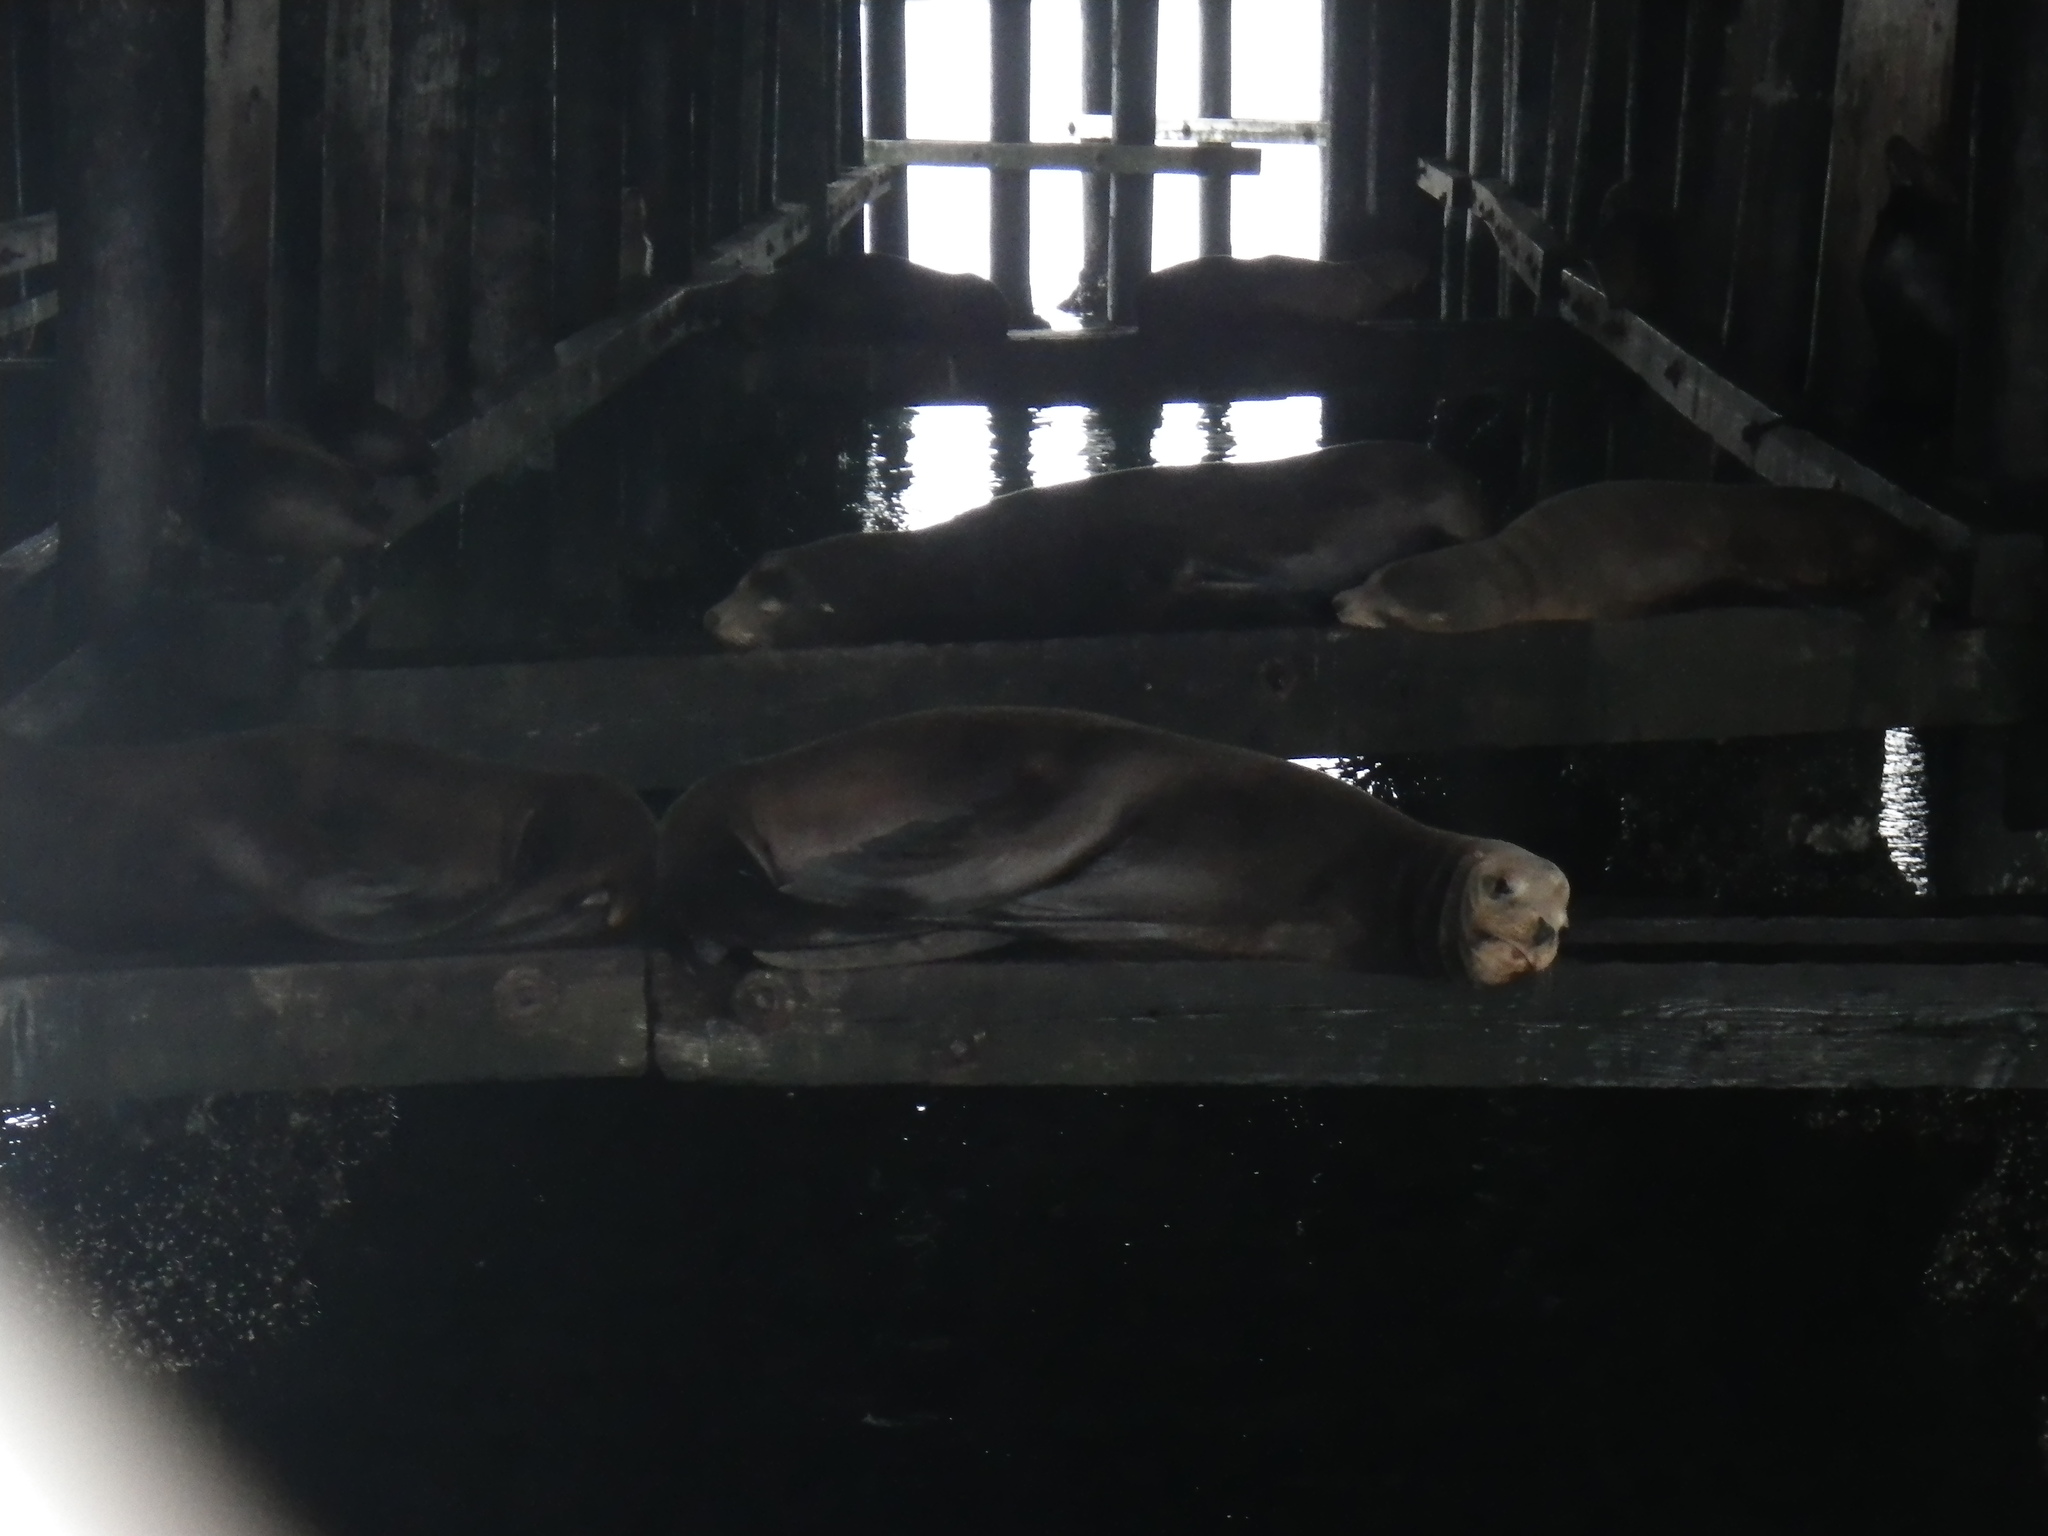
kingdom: Animalia
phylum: Chordata
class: Mammalia
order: Carnivora
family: Otariidae
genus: Zalophus
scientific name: Zalophus californianus
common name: California sea lion
